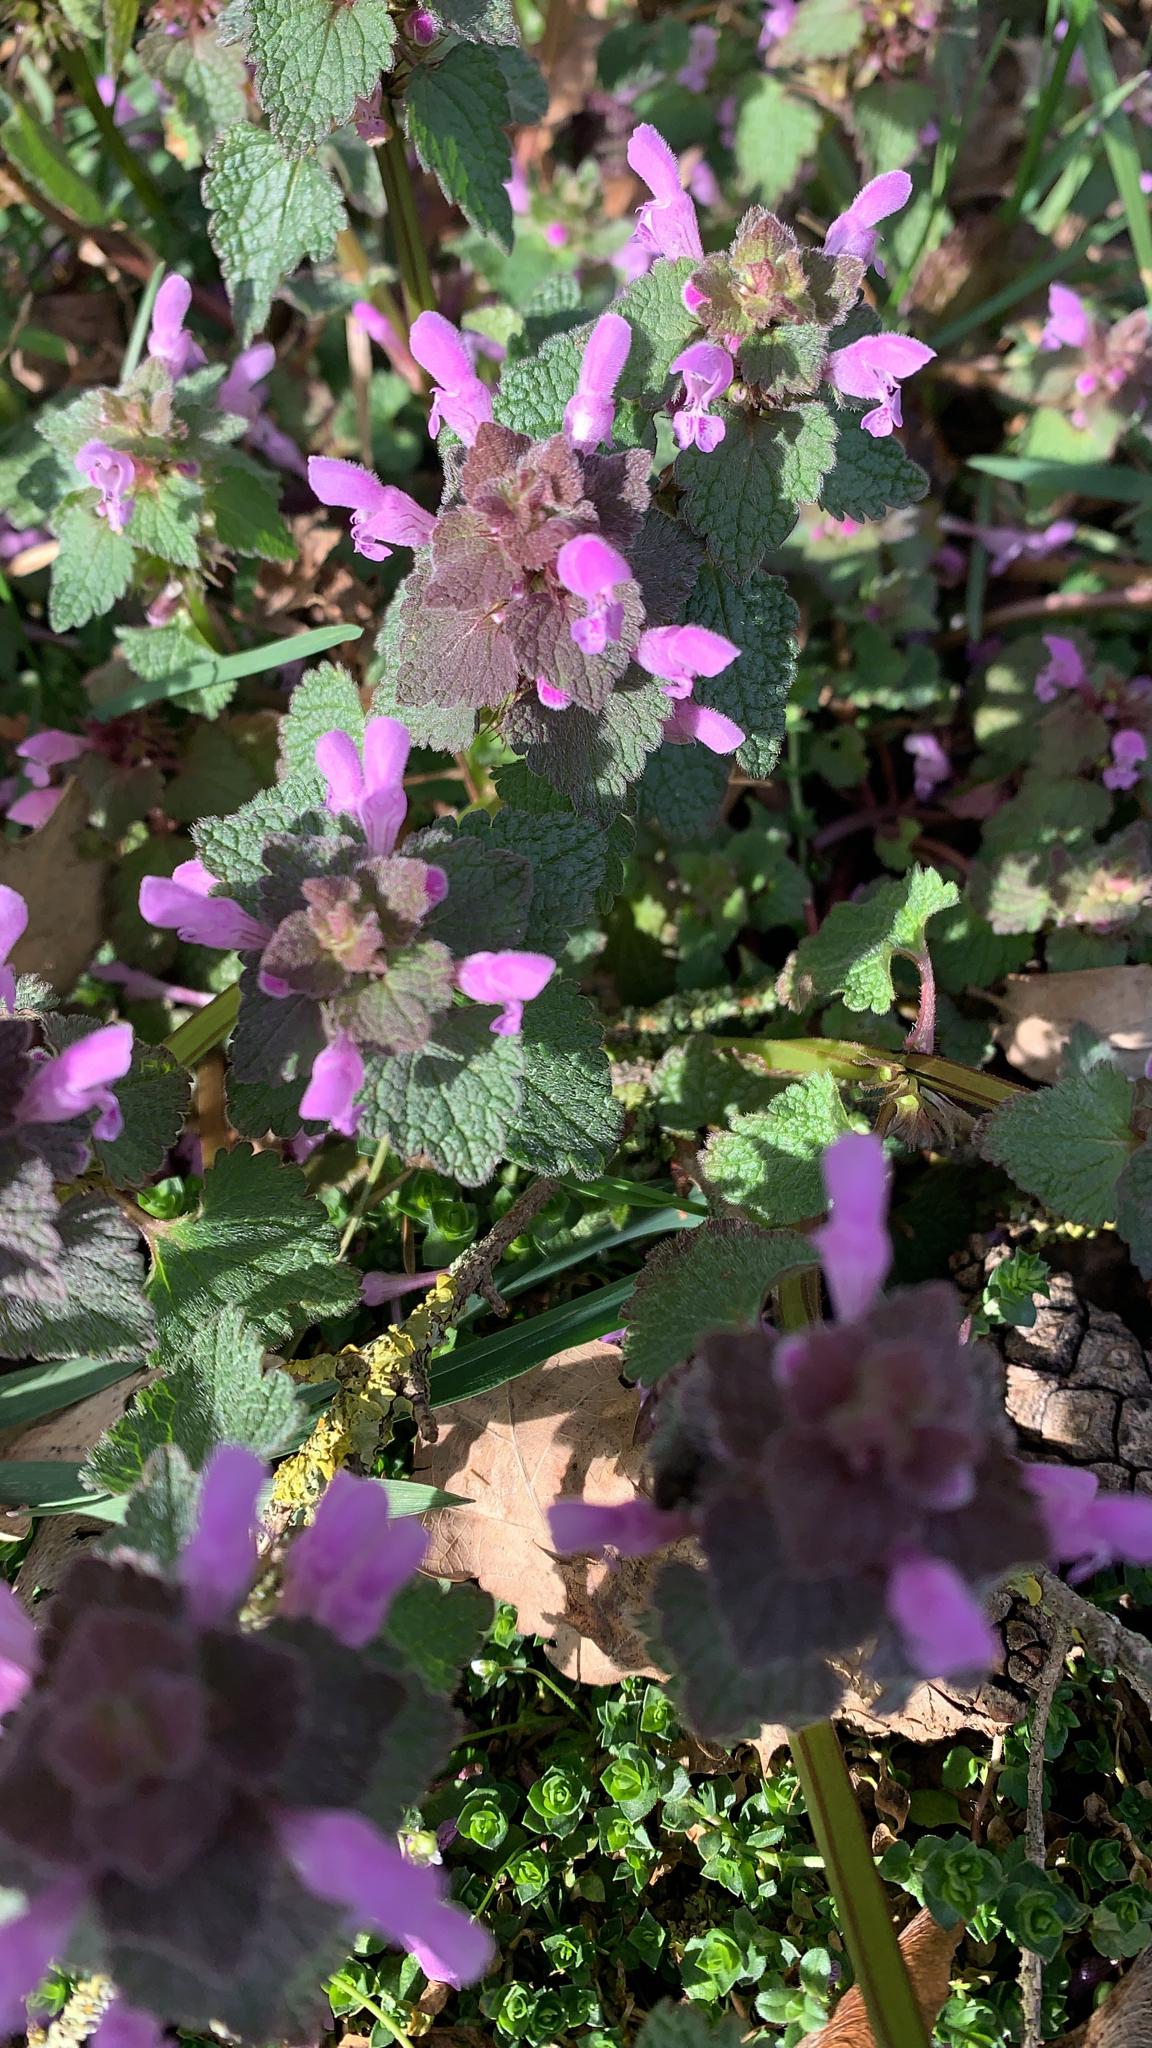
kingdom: Plantae
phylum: Tracheophyta
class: Magnoliopsida
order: Lamiales
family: Lamiaceae
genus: Lamium
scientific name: Lamium purpureum
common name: Red dead-nettle
